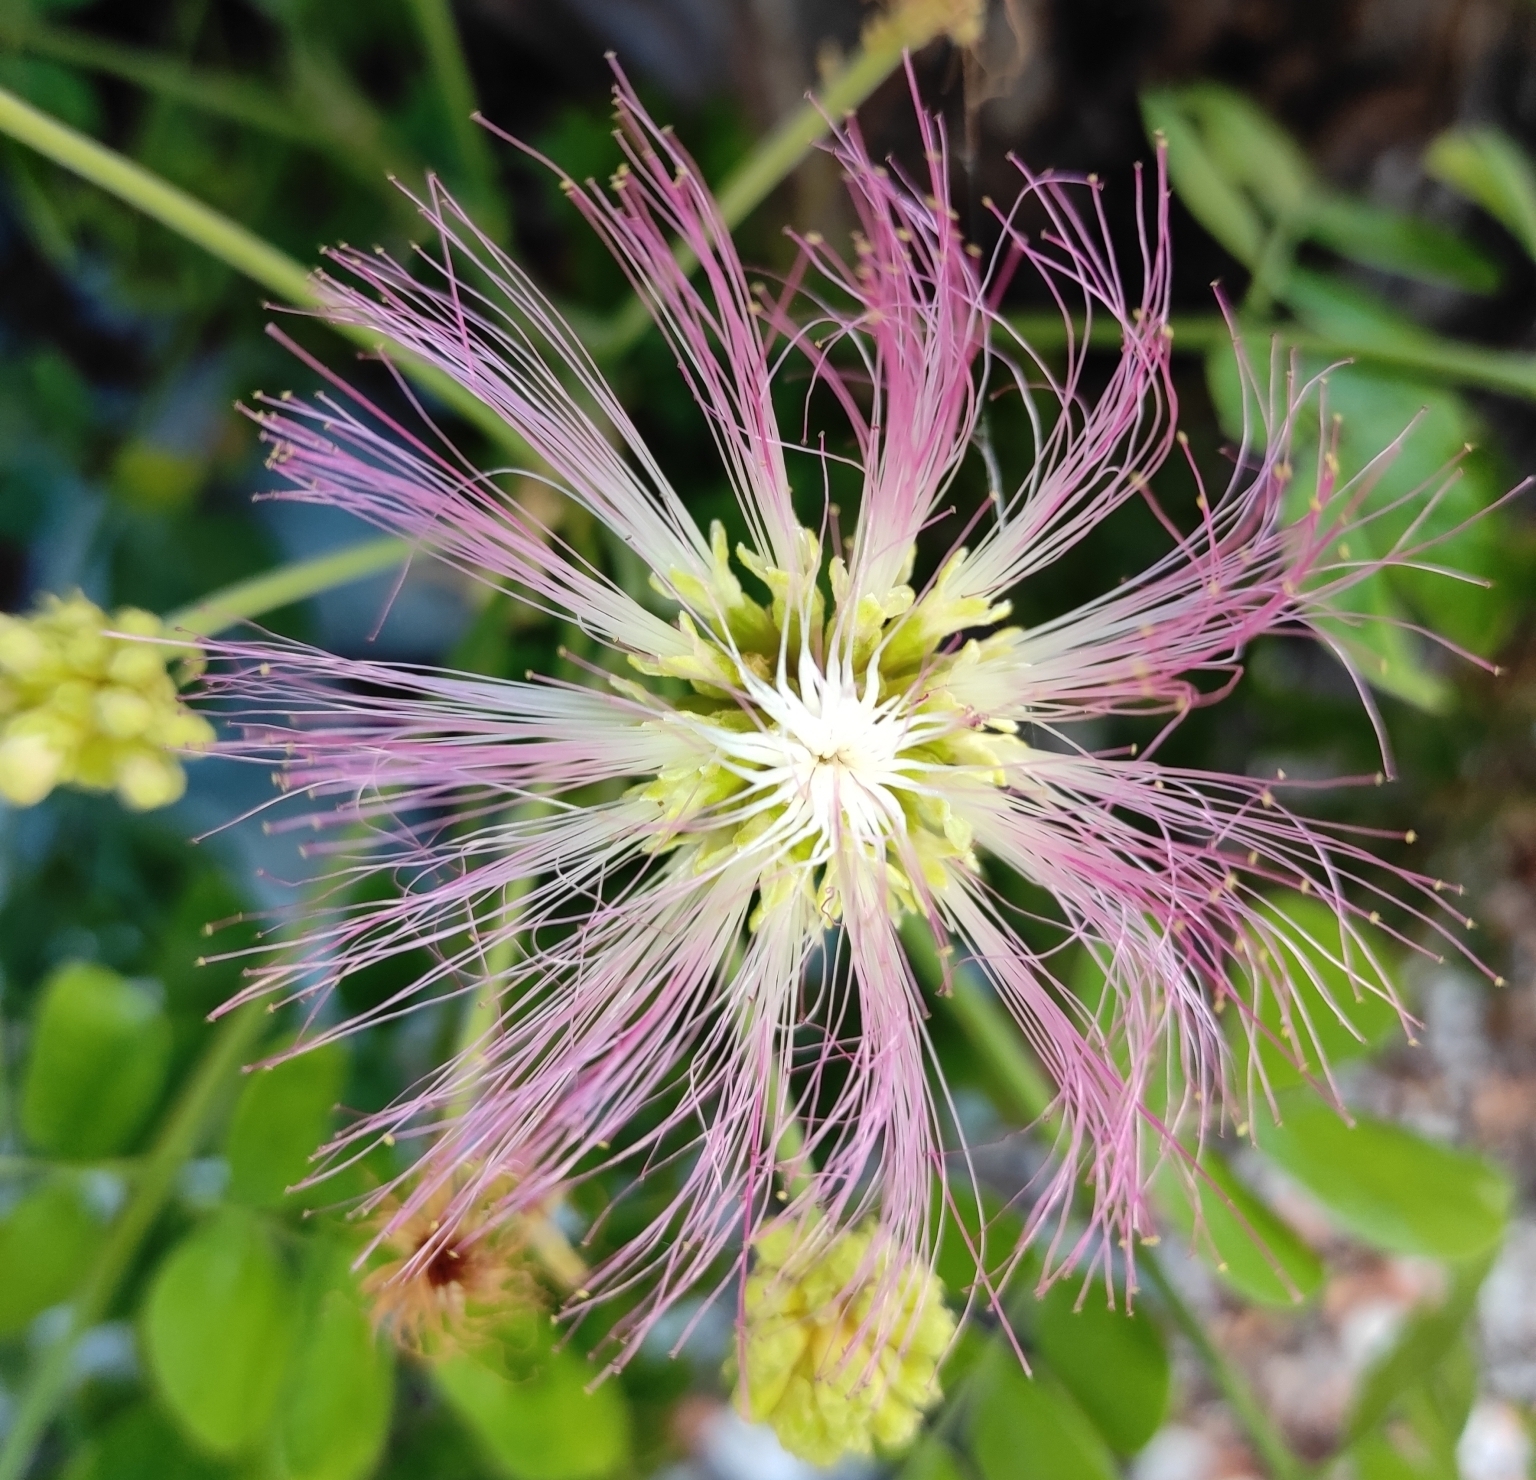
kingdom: Plantae
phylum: Tracheophyta
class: Magnoliopsida
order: Fabales
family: Fabaceae
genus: Samanea
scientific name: Samanea saman
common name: Raintree
